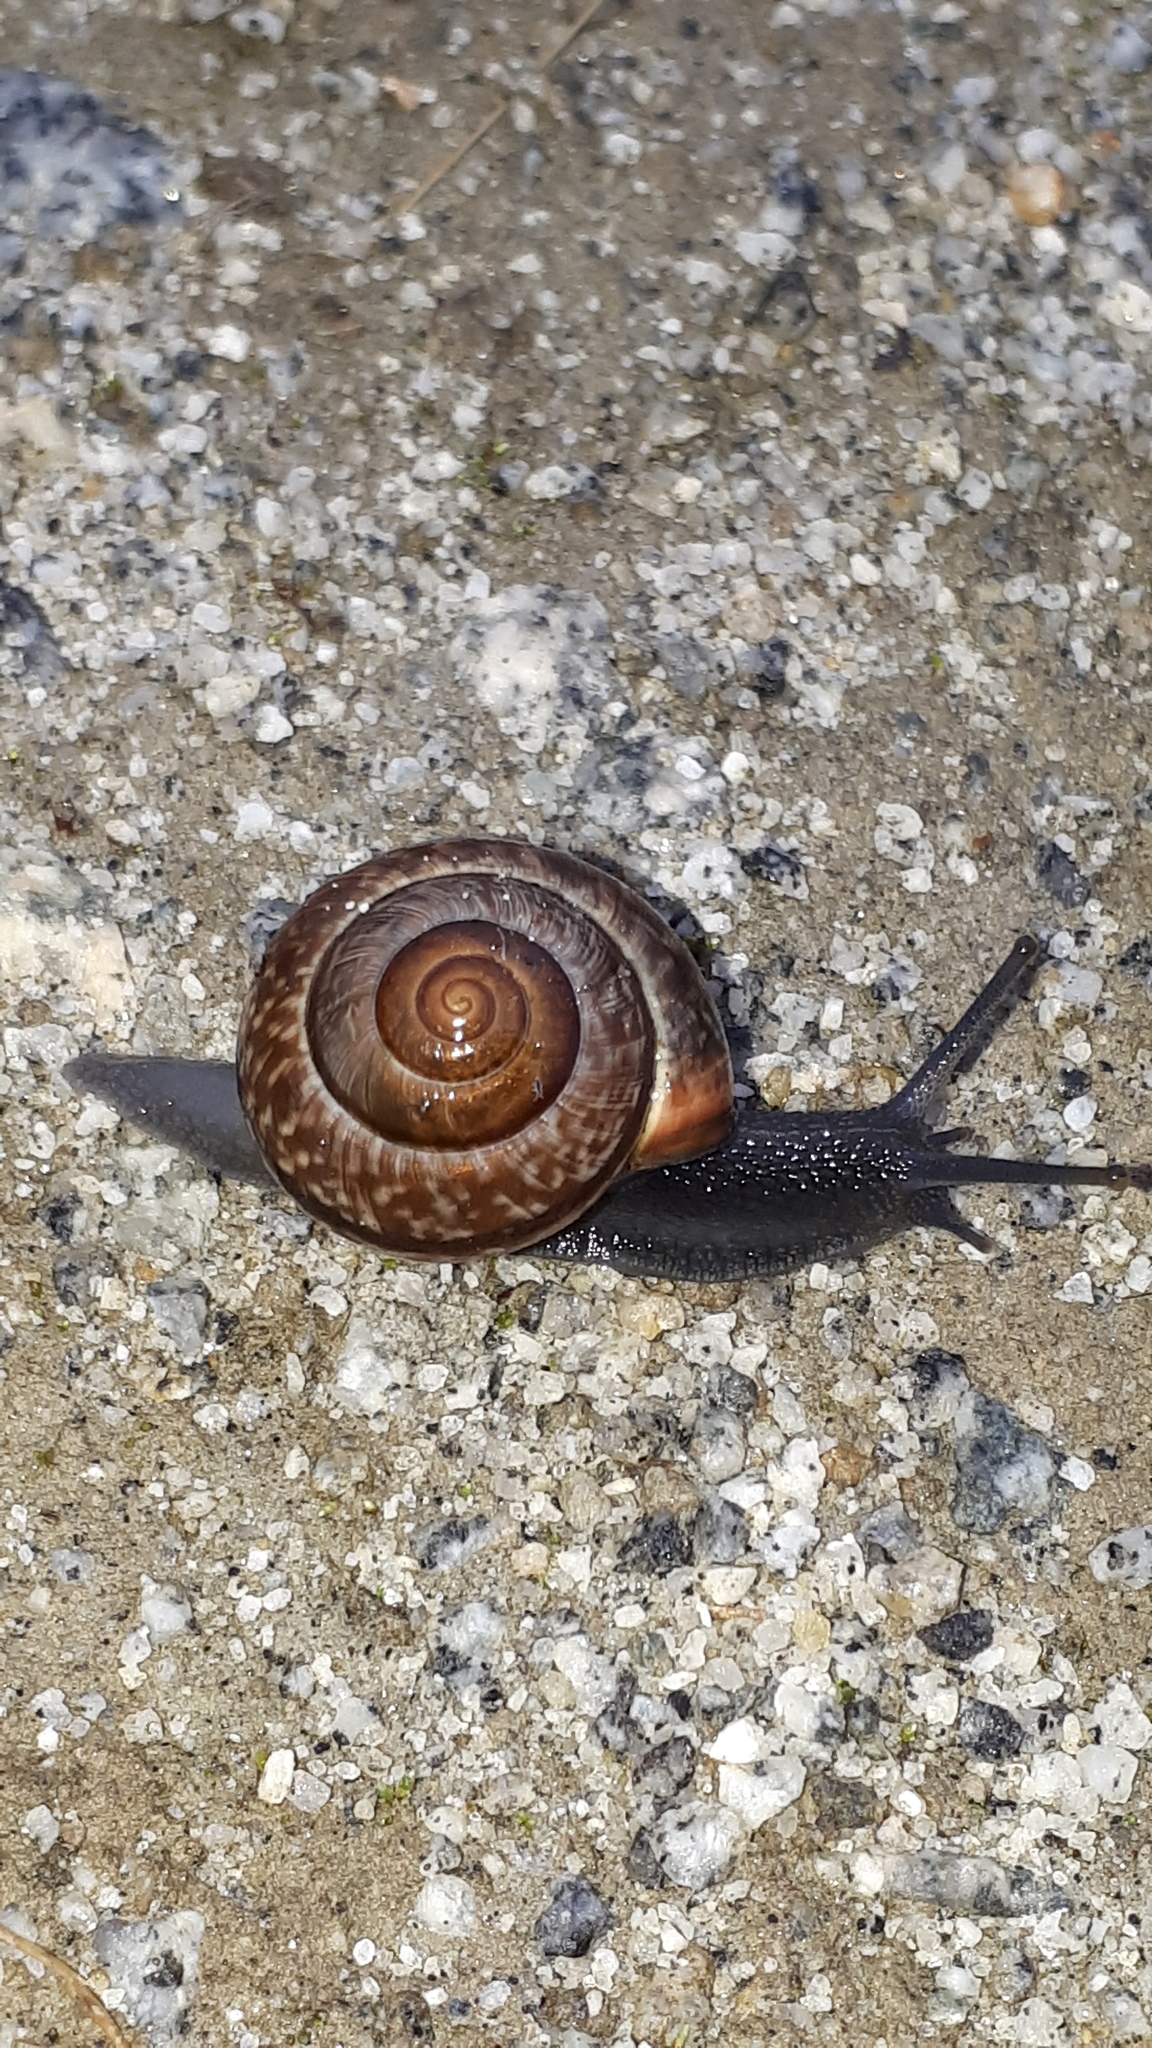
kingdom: Animalia
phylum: Mollusca
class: Gastropoda
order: Stylommatophora
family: Helicidae
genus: Arianta
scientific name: Arianta arbustorum
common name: Copse snail
